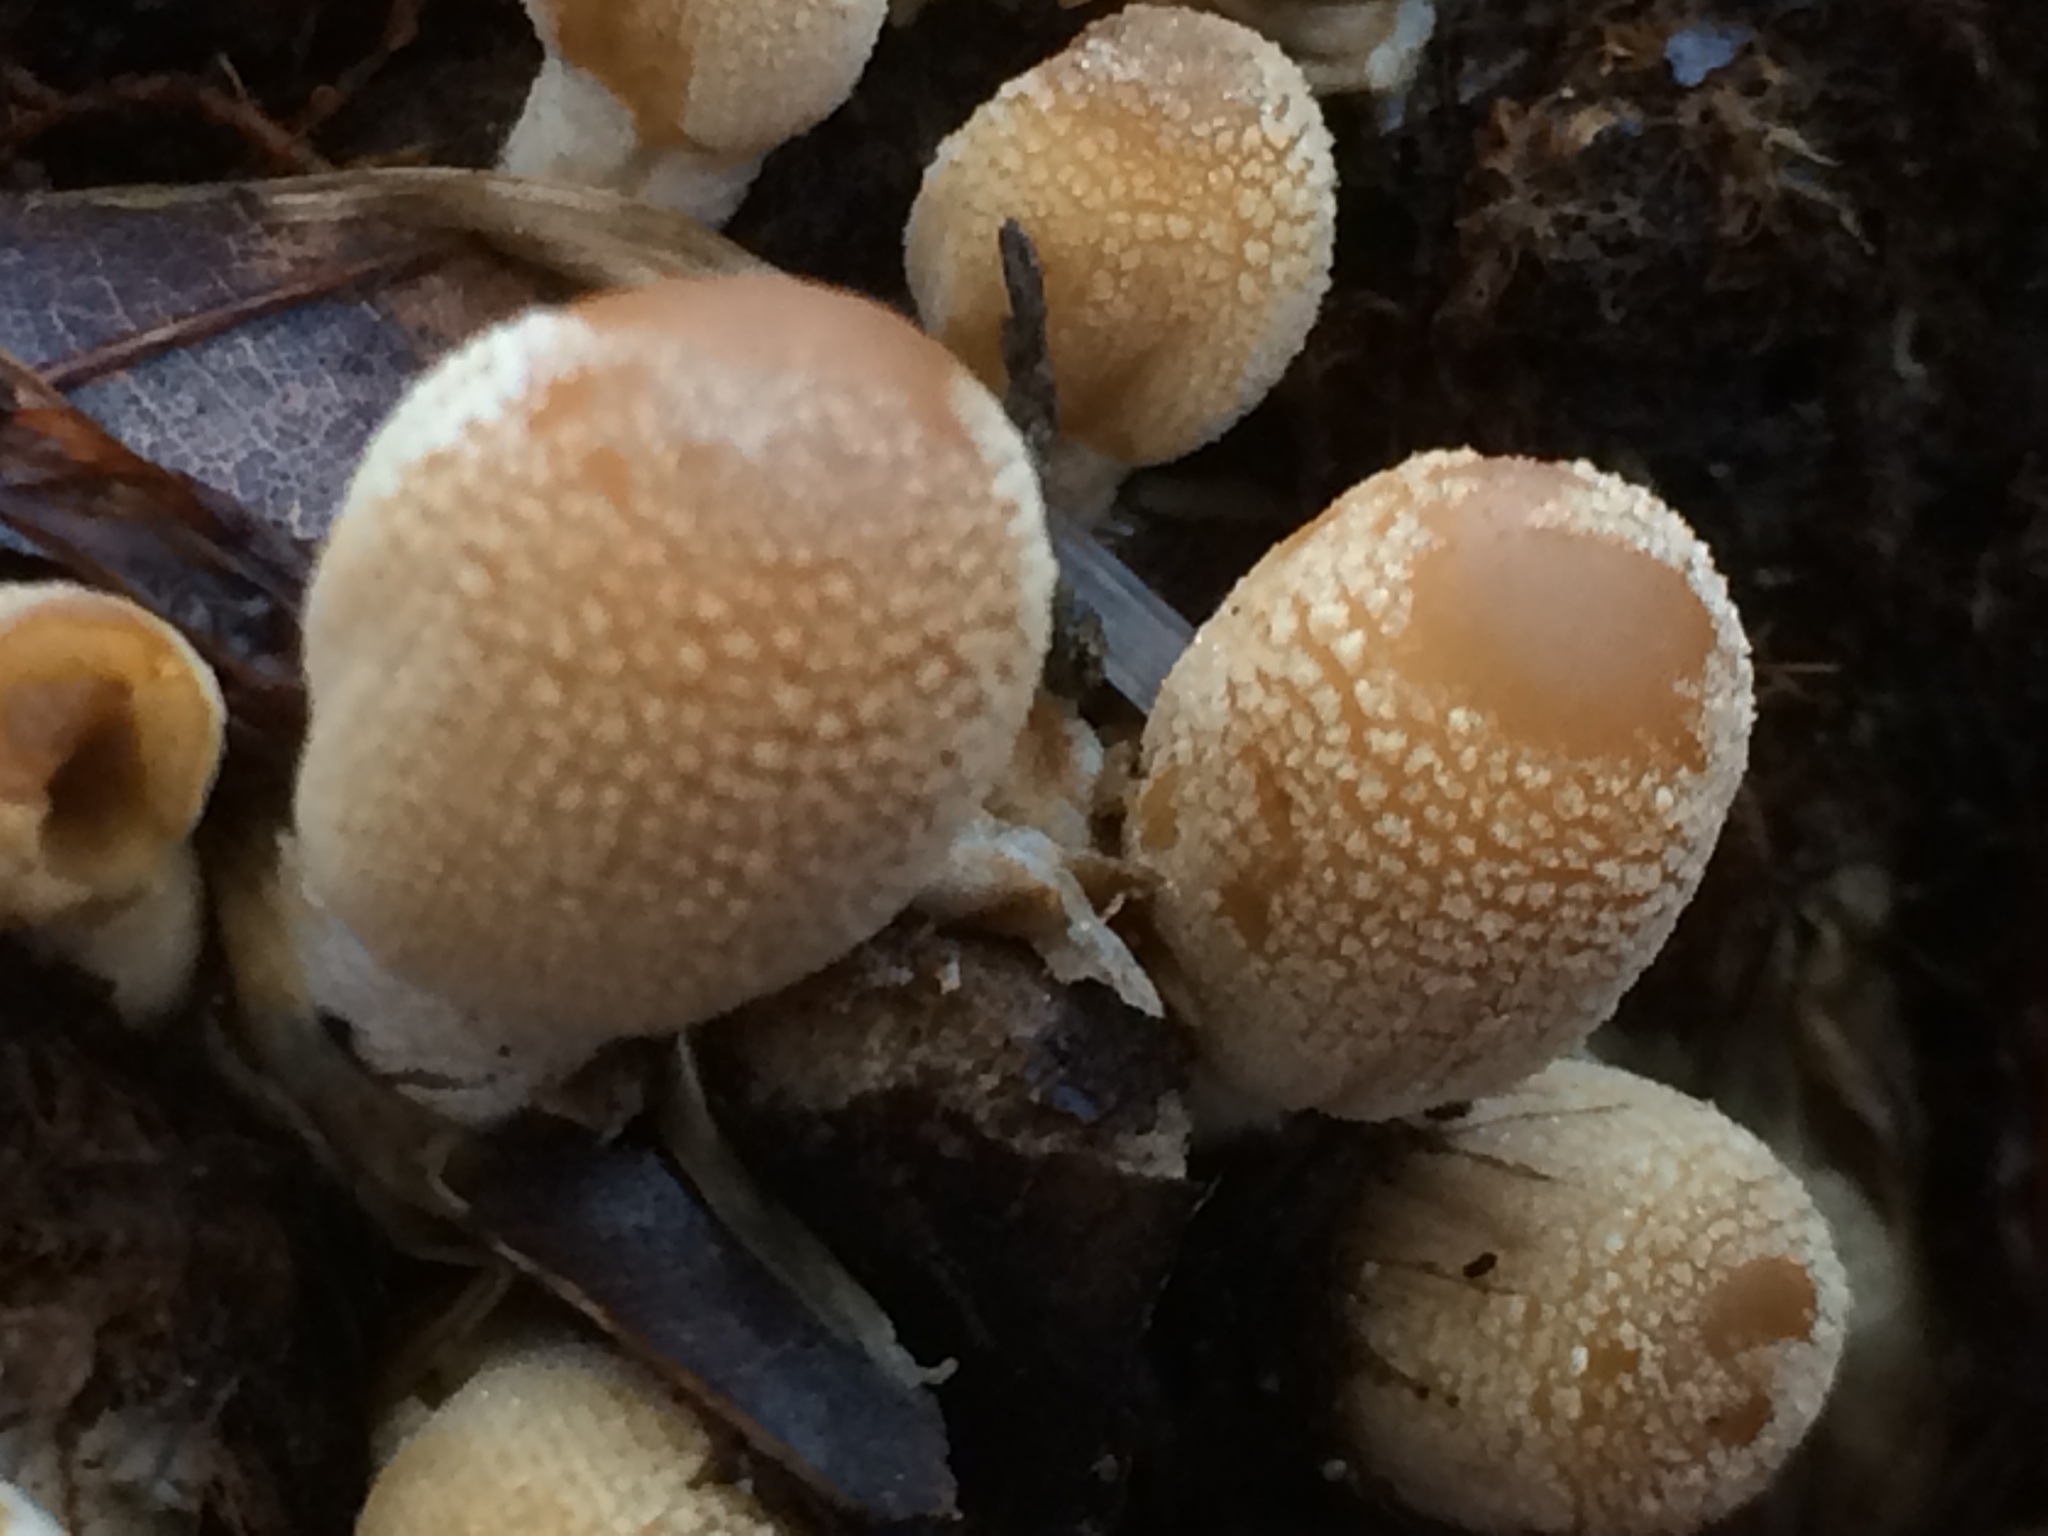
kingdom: Fungi
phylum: Basidiomycota
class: Agaricomycetes
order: Agaricales
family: Psathyrellaceae
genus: Coprinellus
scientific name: Coprinellus micaceus
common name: Glistening ink-cap
